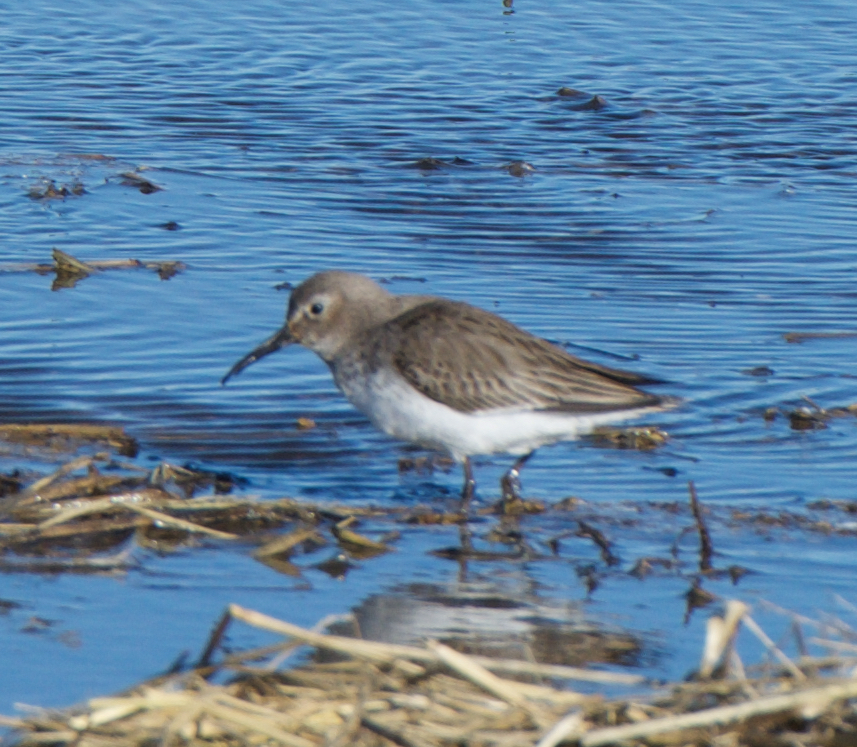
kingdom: Animalia
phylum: Chordata
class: Aves
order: Charadriiformes
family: Scolopacidae
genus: Calidris
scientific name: Calidris alpina
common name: Dunlin
